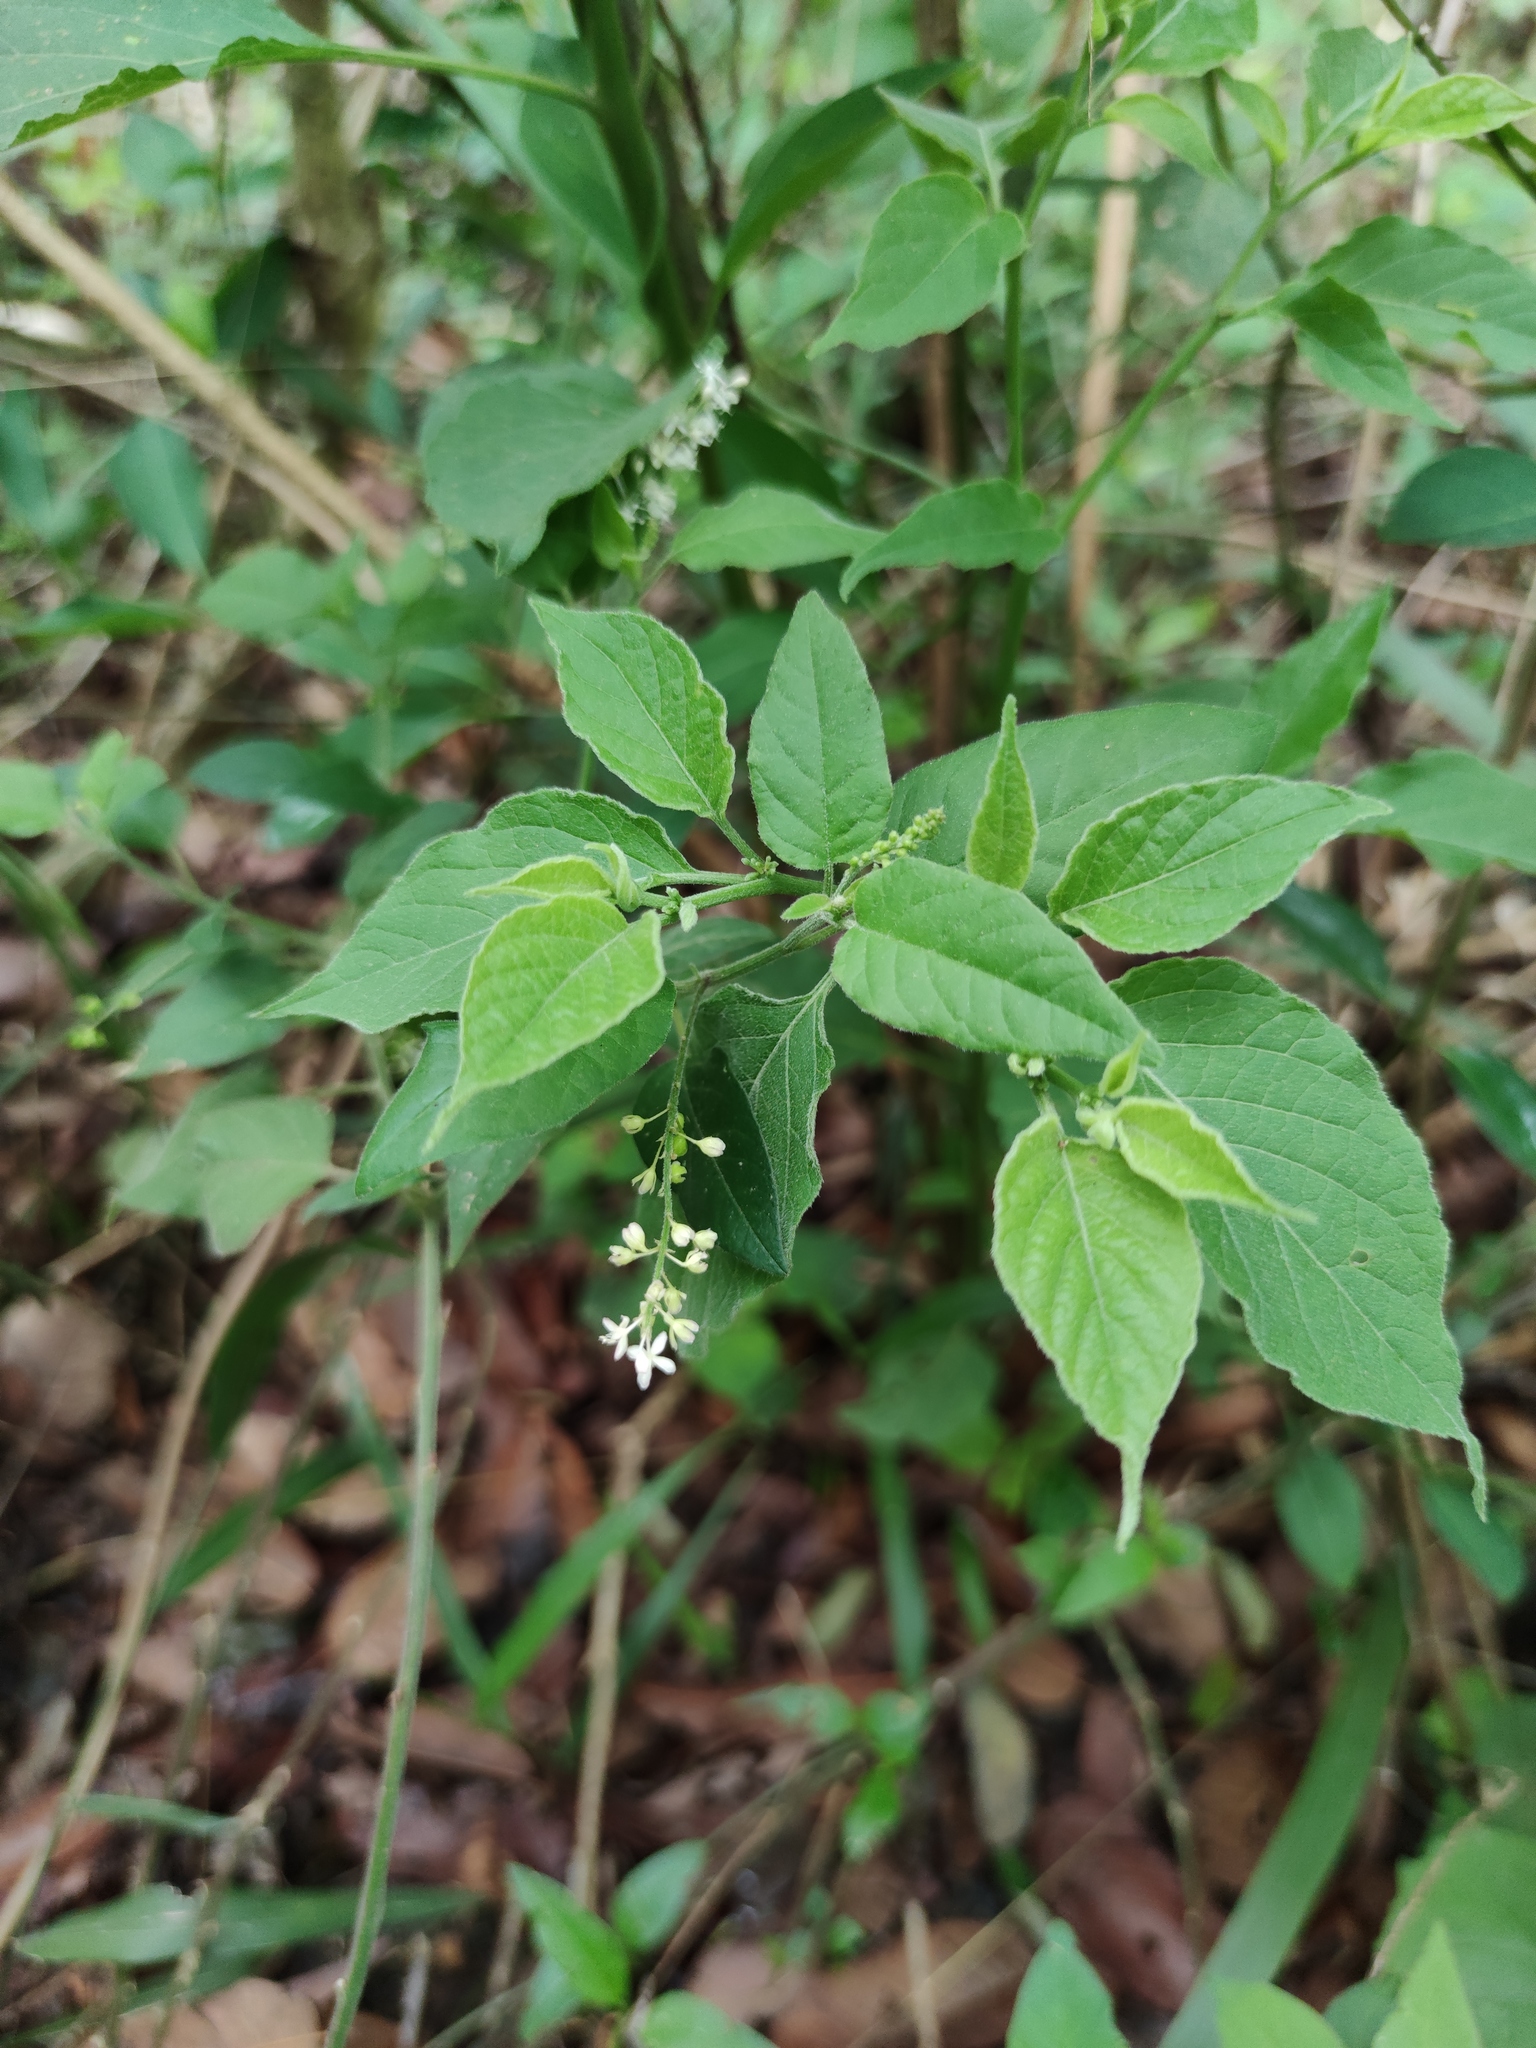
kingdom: Plantae
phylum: Tracheophyta
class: Magnoliopsida
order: Caryophyllales
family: Phytolaccaceae
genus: Rivina
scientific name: Rivina humilis
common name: Rougeplant
